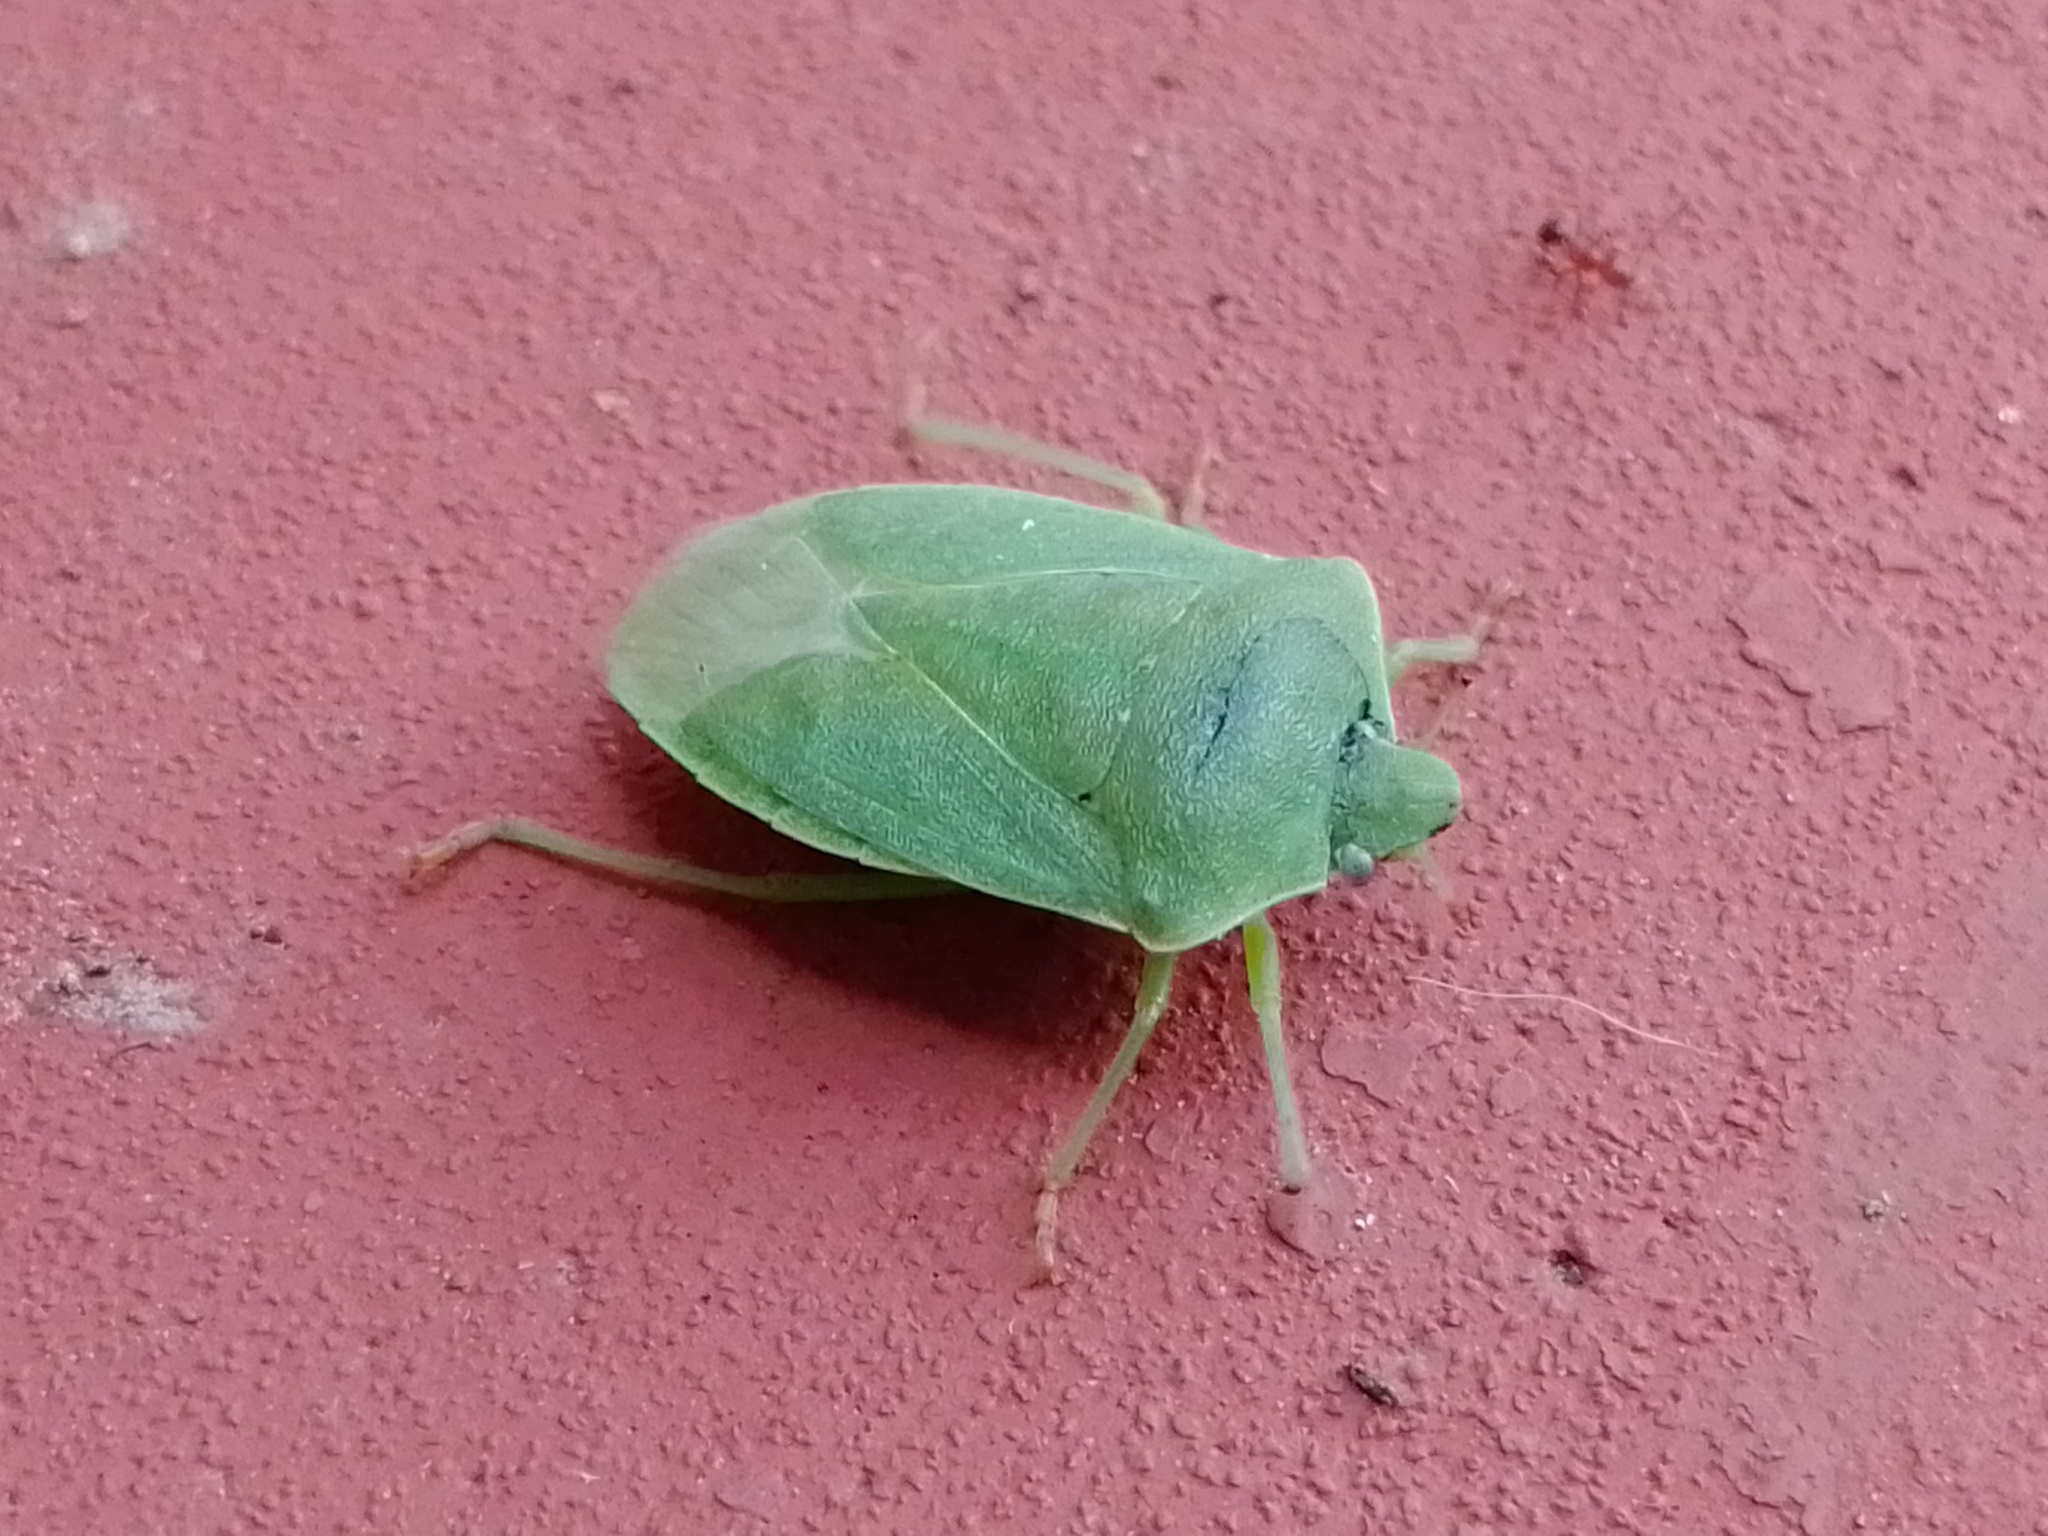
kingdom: Animalia
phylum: Arthropoda
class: Insecta
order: Hemiptera
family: Pentatomidae
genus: Nezara
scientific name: Nezara viridula
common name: Southern green stink bug
